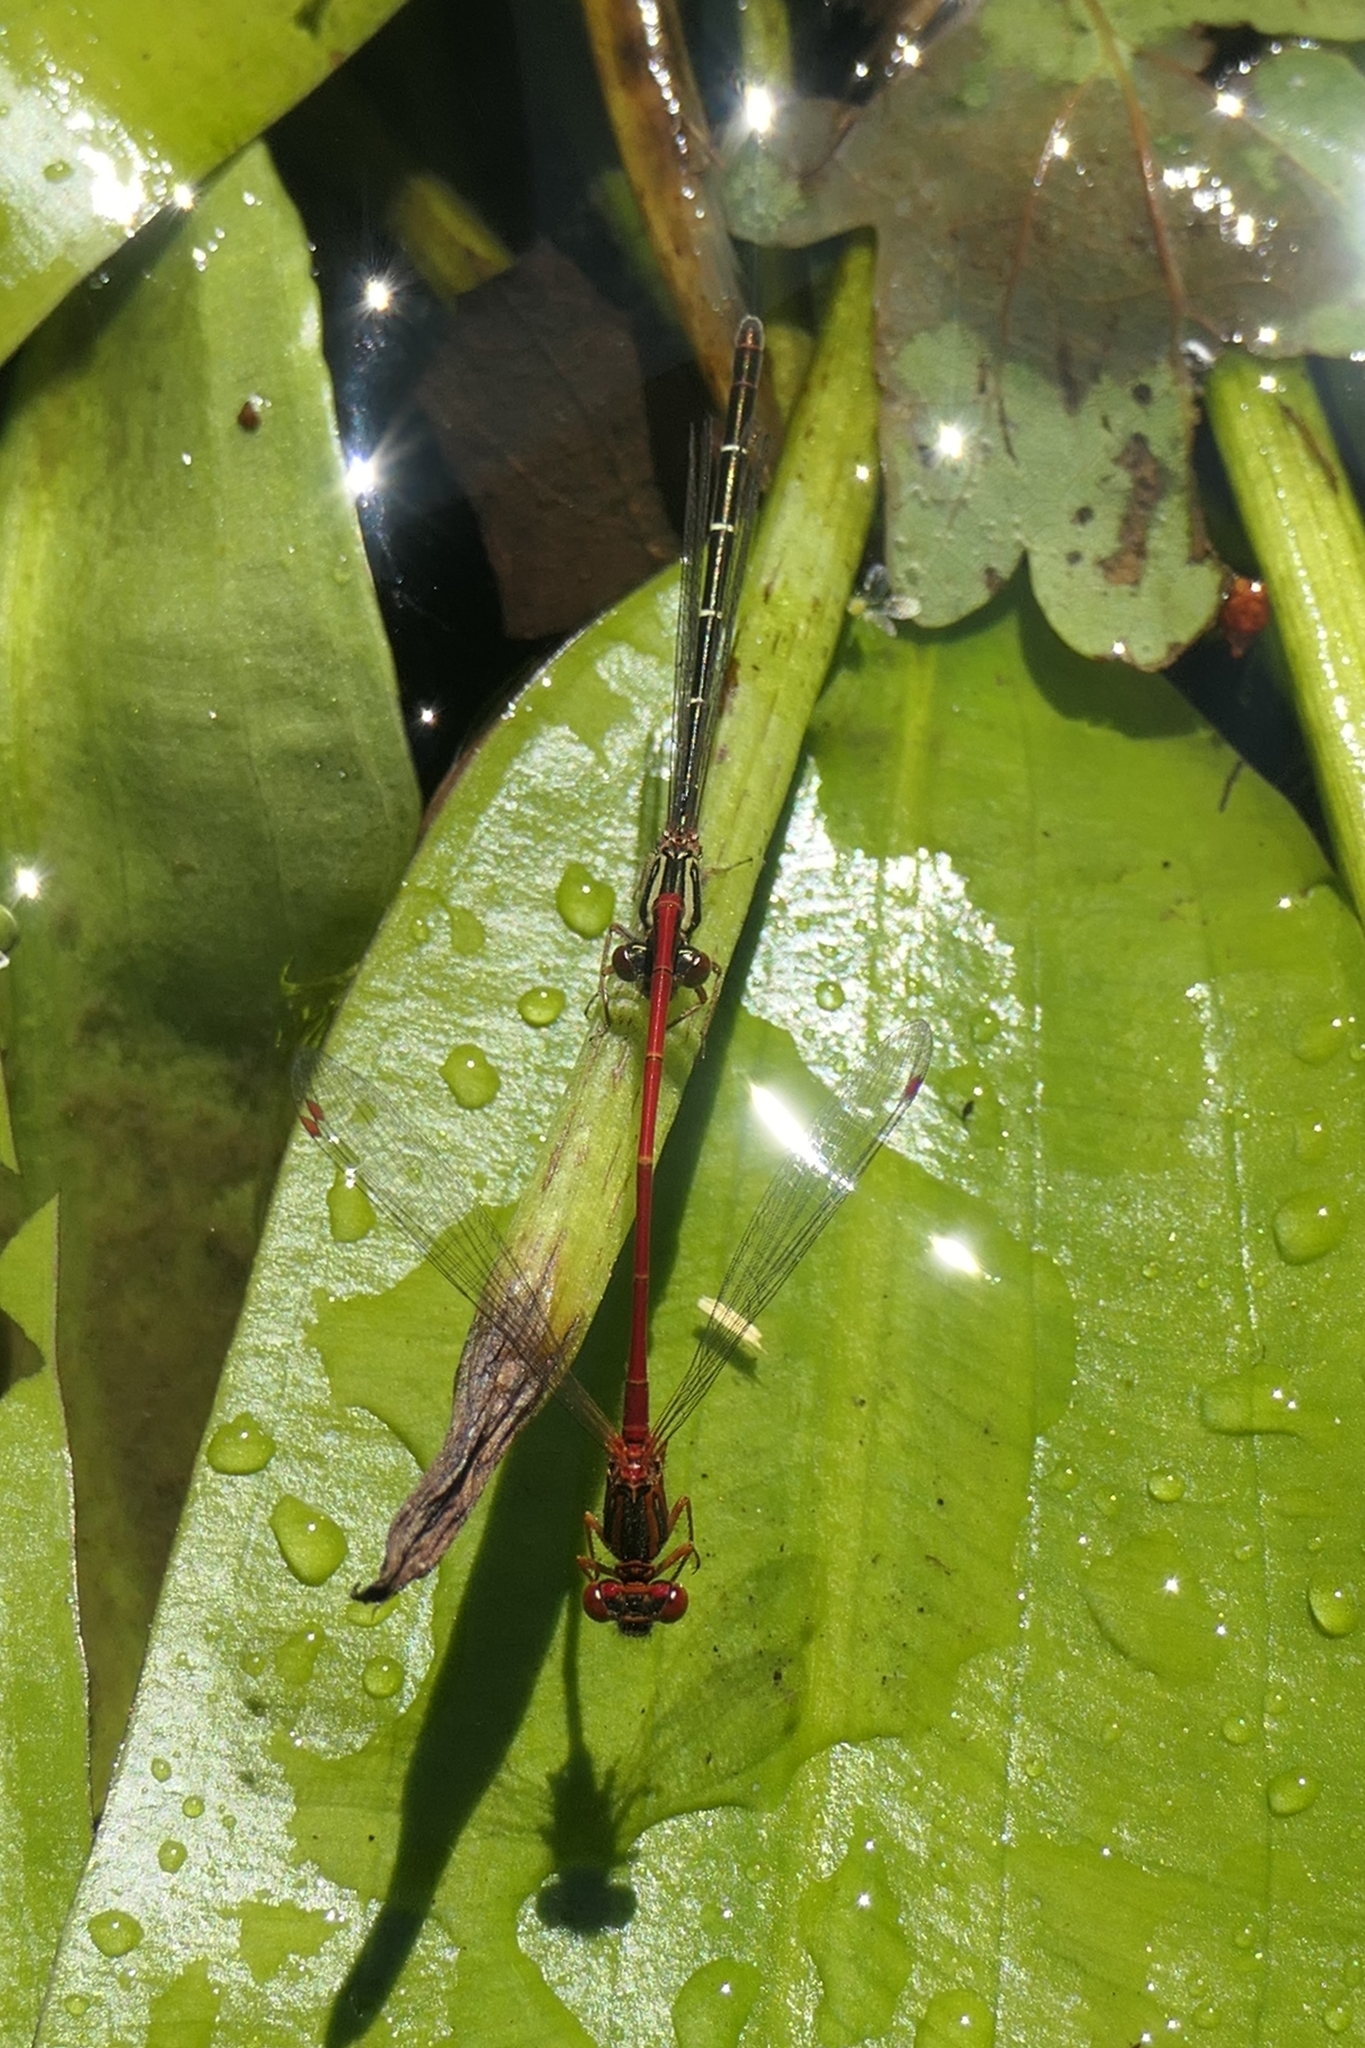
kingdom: Animalia
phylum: Arthropoda
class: Insecta
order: Odonata
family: Coenagrionidae
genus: Xanthocnemis
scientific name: Xanthocnemis zealandica
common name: Common redcoat damselfly
